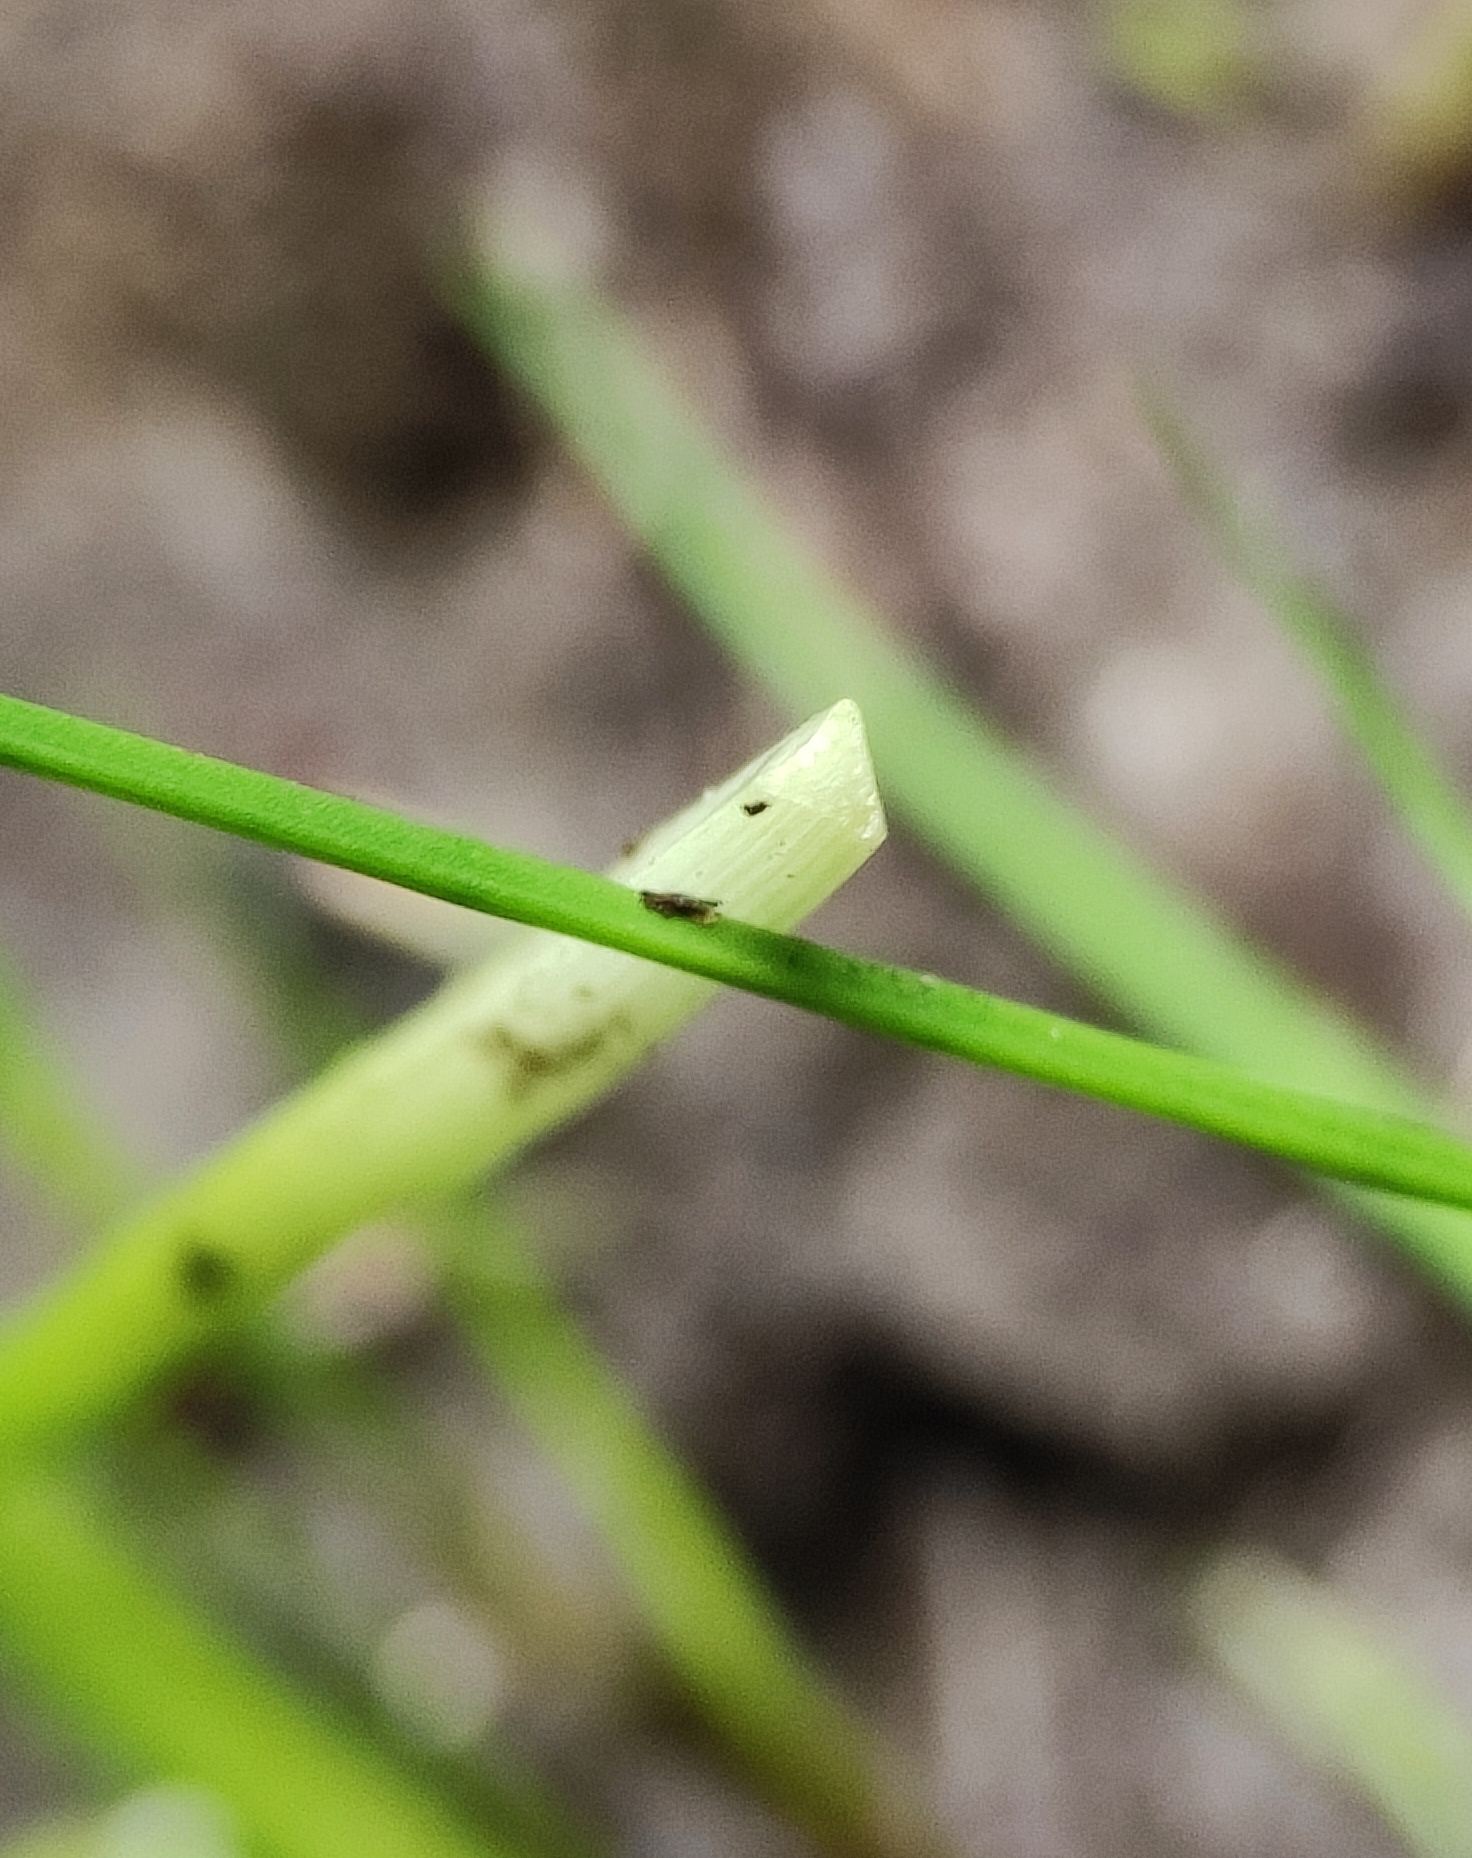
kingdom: Plantae
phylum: Tracheophyta
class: Liliopsida
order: Poales
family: Cyperaceae
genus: Cyperus
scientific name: Cyperus fuscus
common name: Brown galingale
